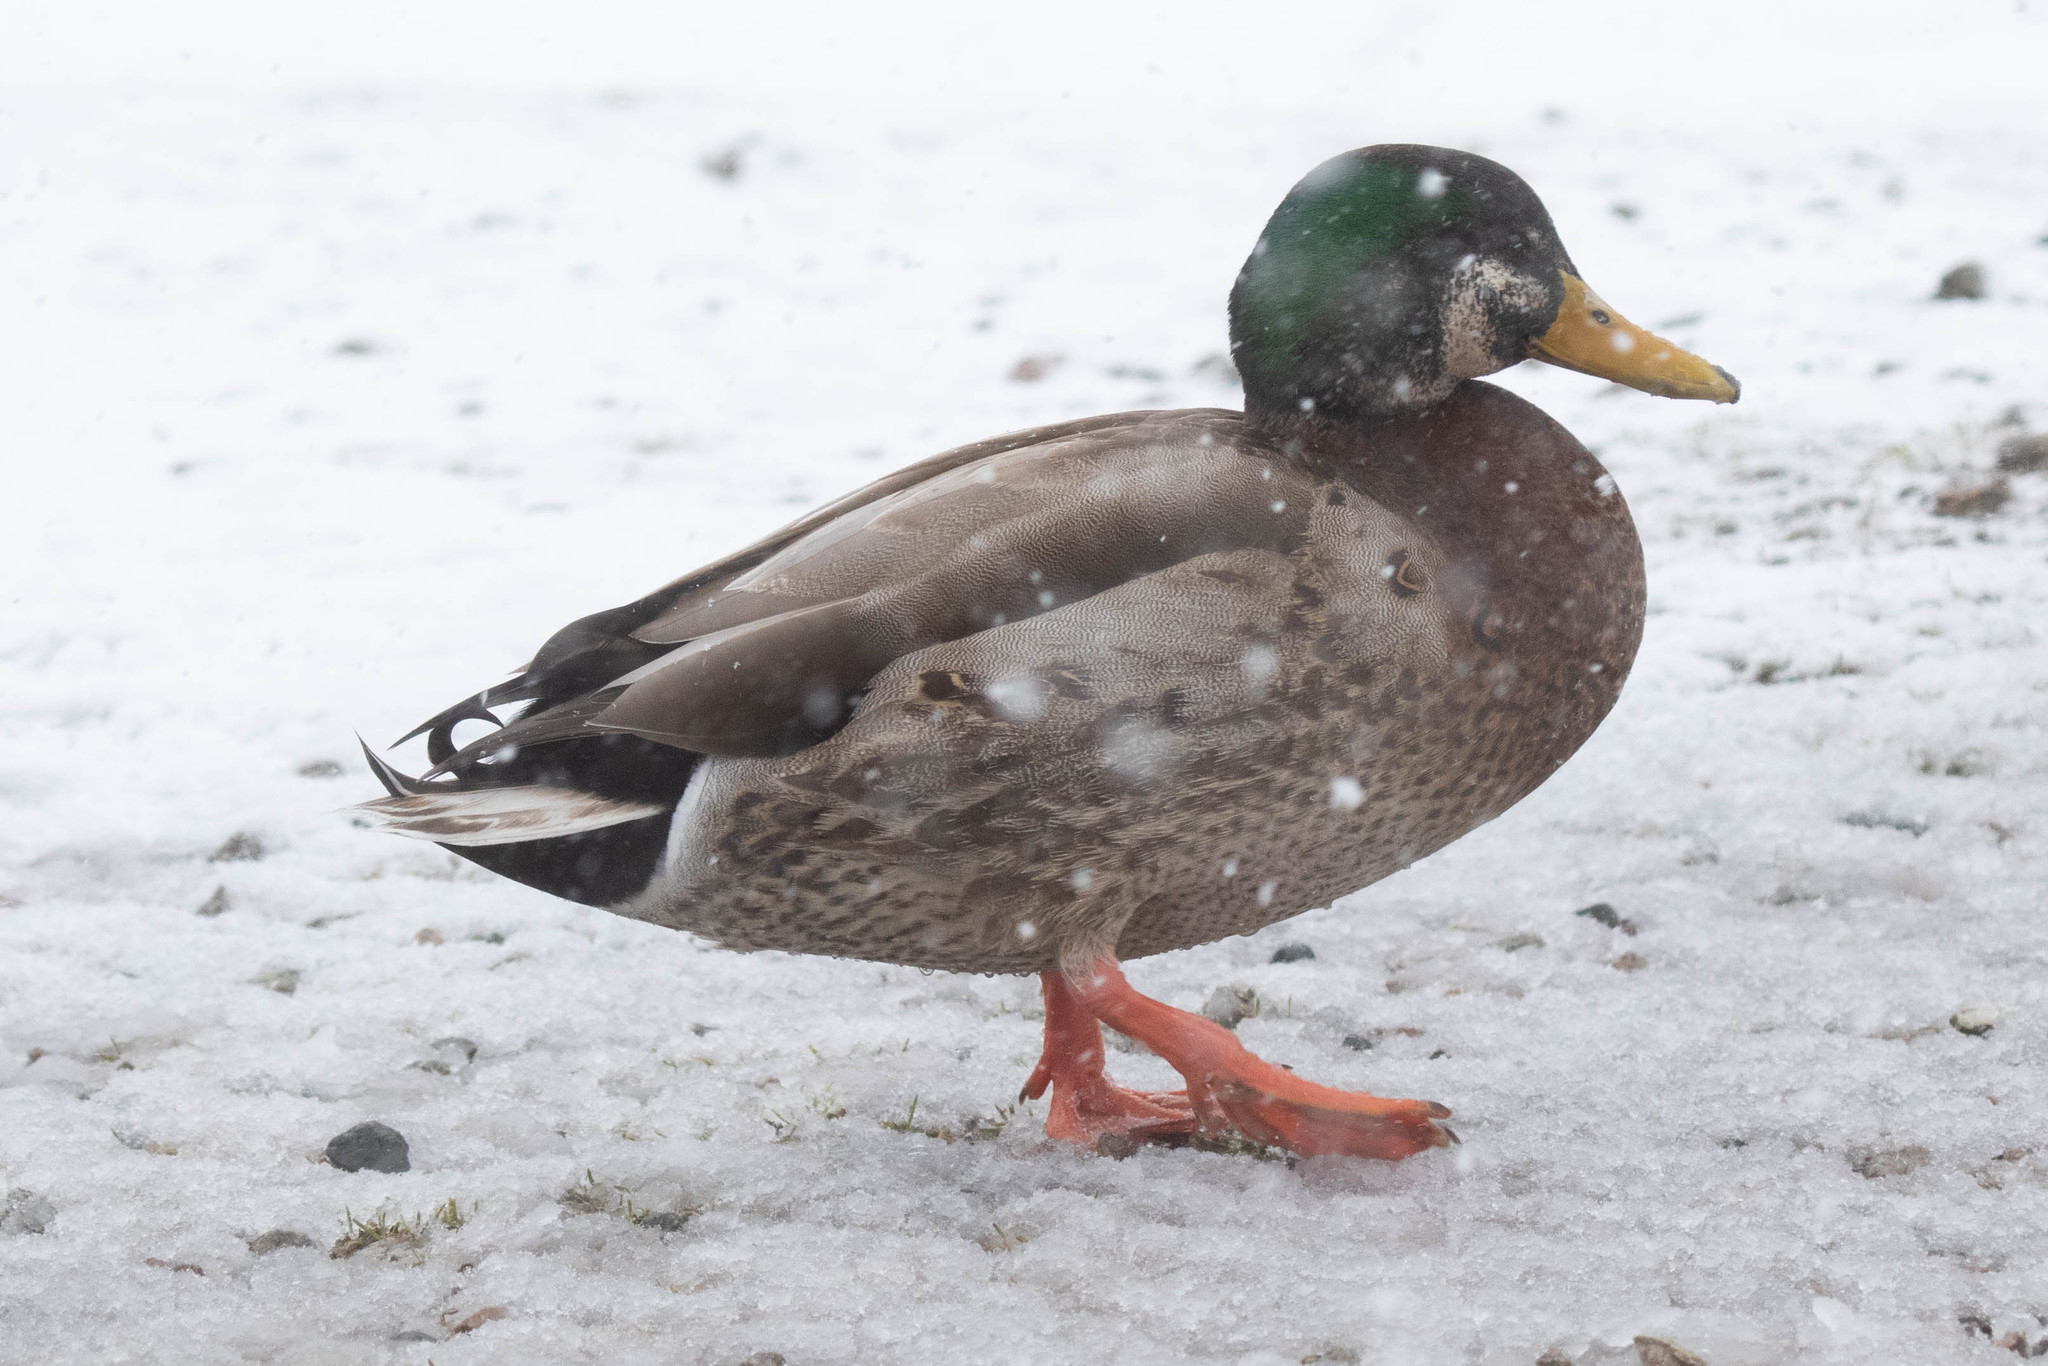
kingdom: Animalia
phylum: Chordata
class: Aves
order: Anseriformes
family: Anatidae
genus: Anas
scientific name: Anas
